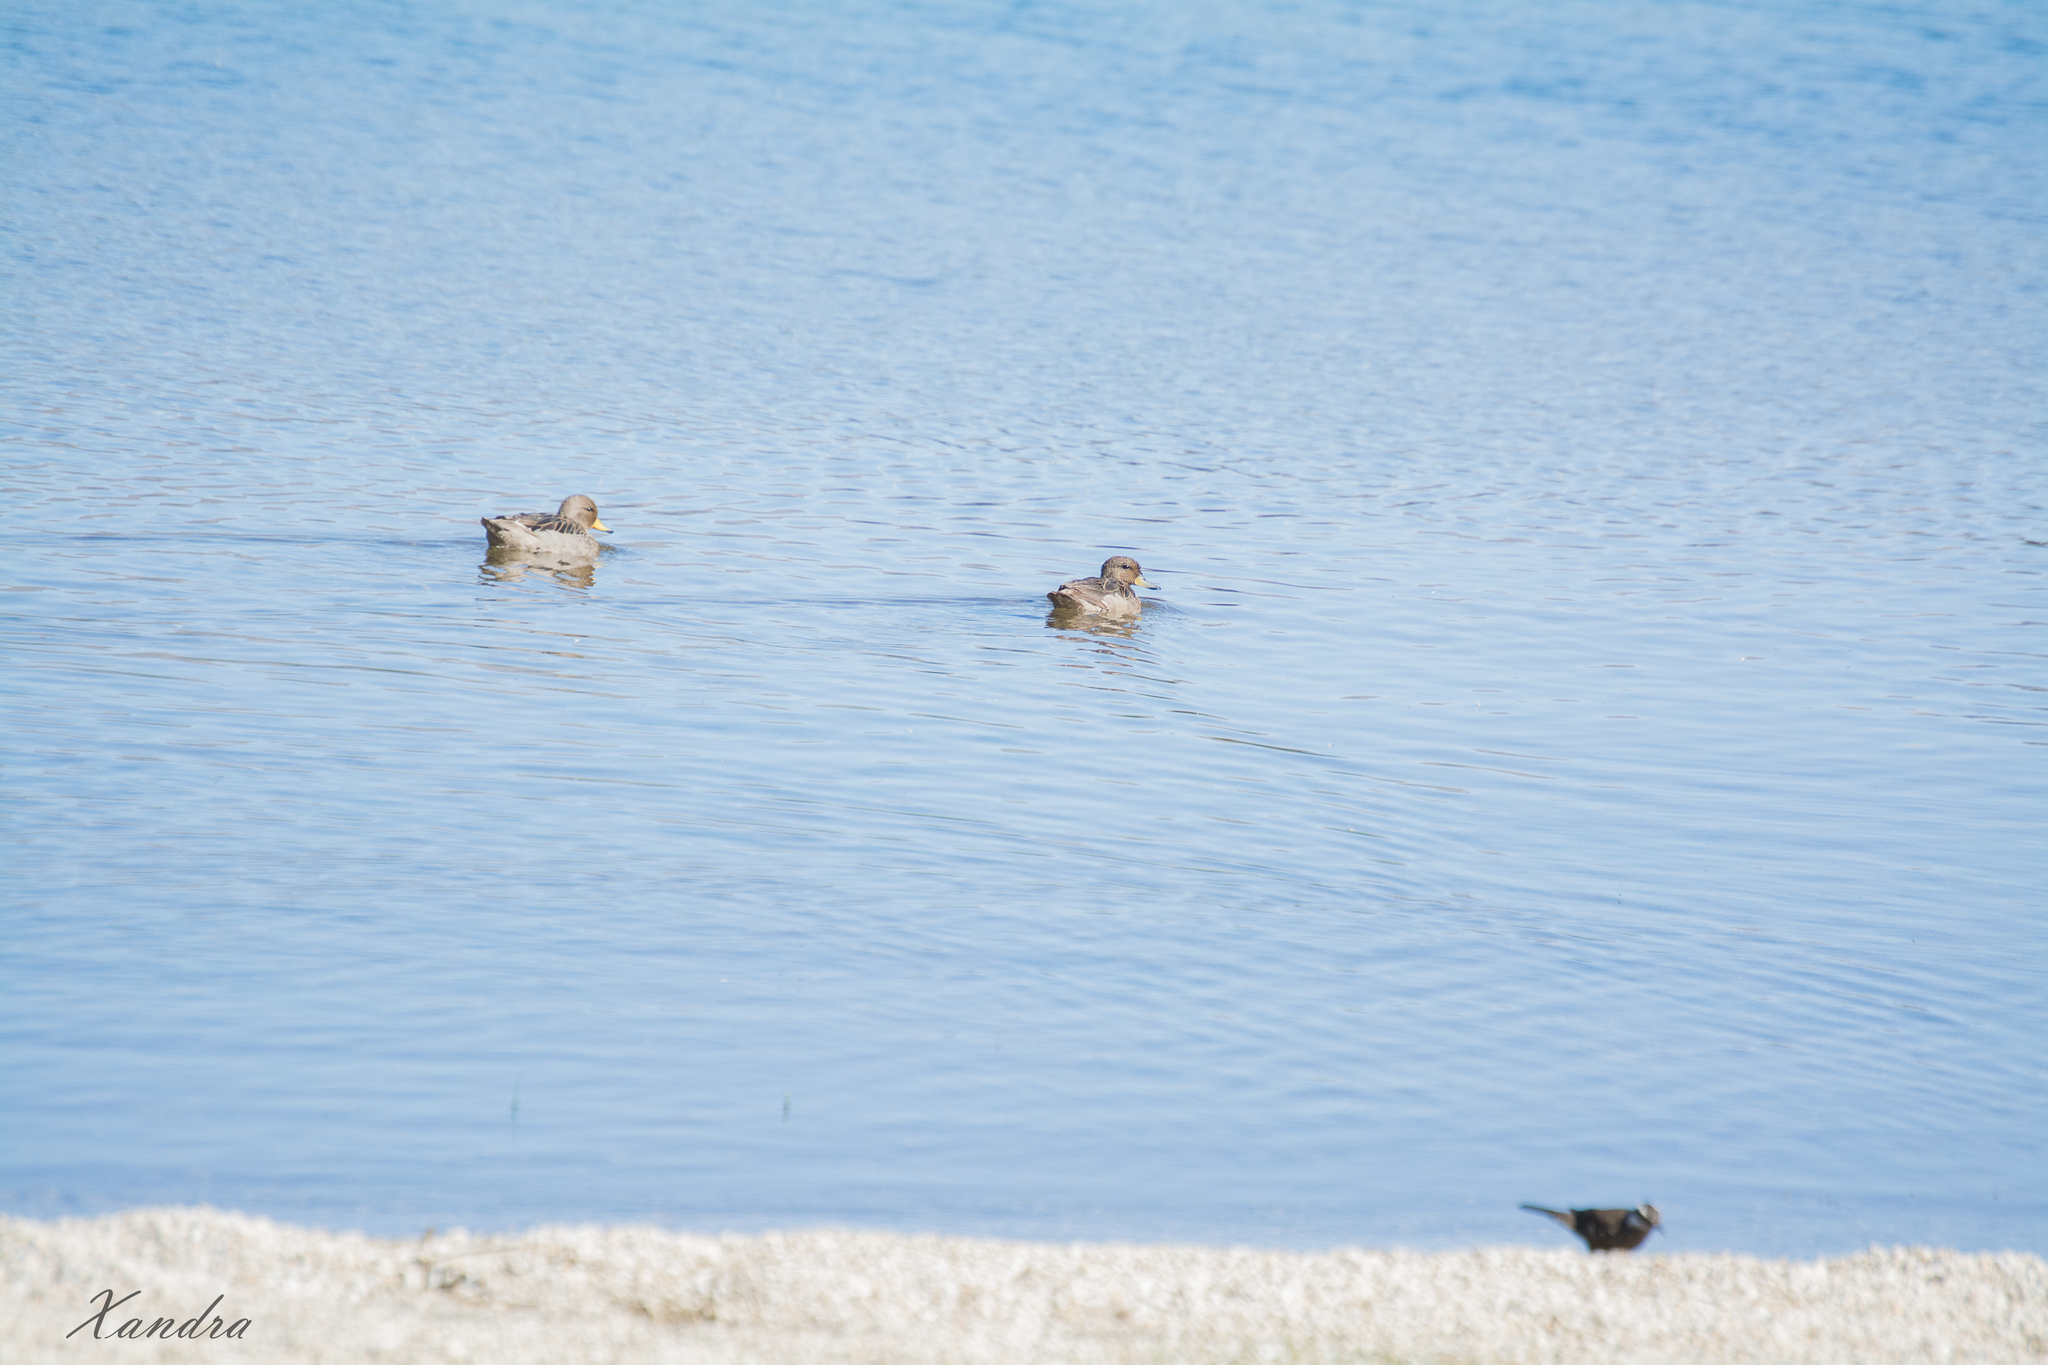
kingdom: Animalia
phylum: Chordata
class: Aves
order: Anseriformes
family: Anatidae
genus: Anas
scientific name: Anas flavirostris
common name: Yellow-billed teal
